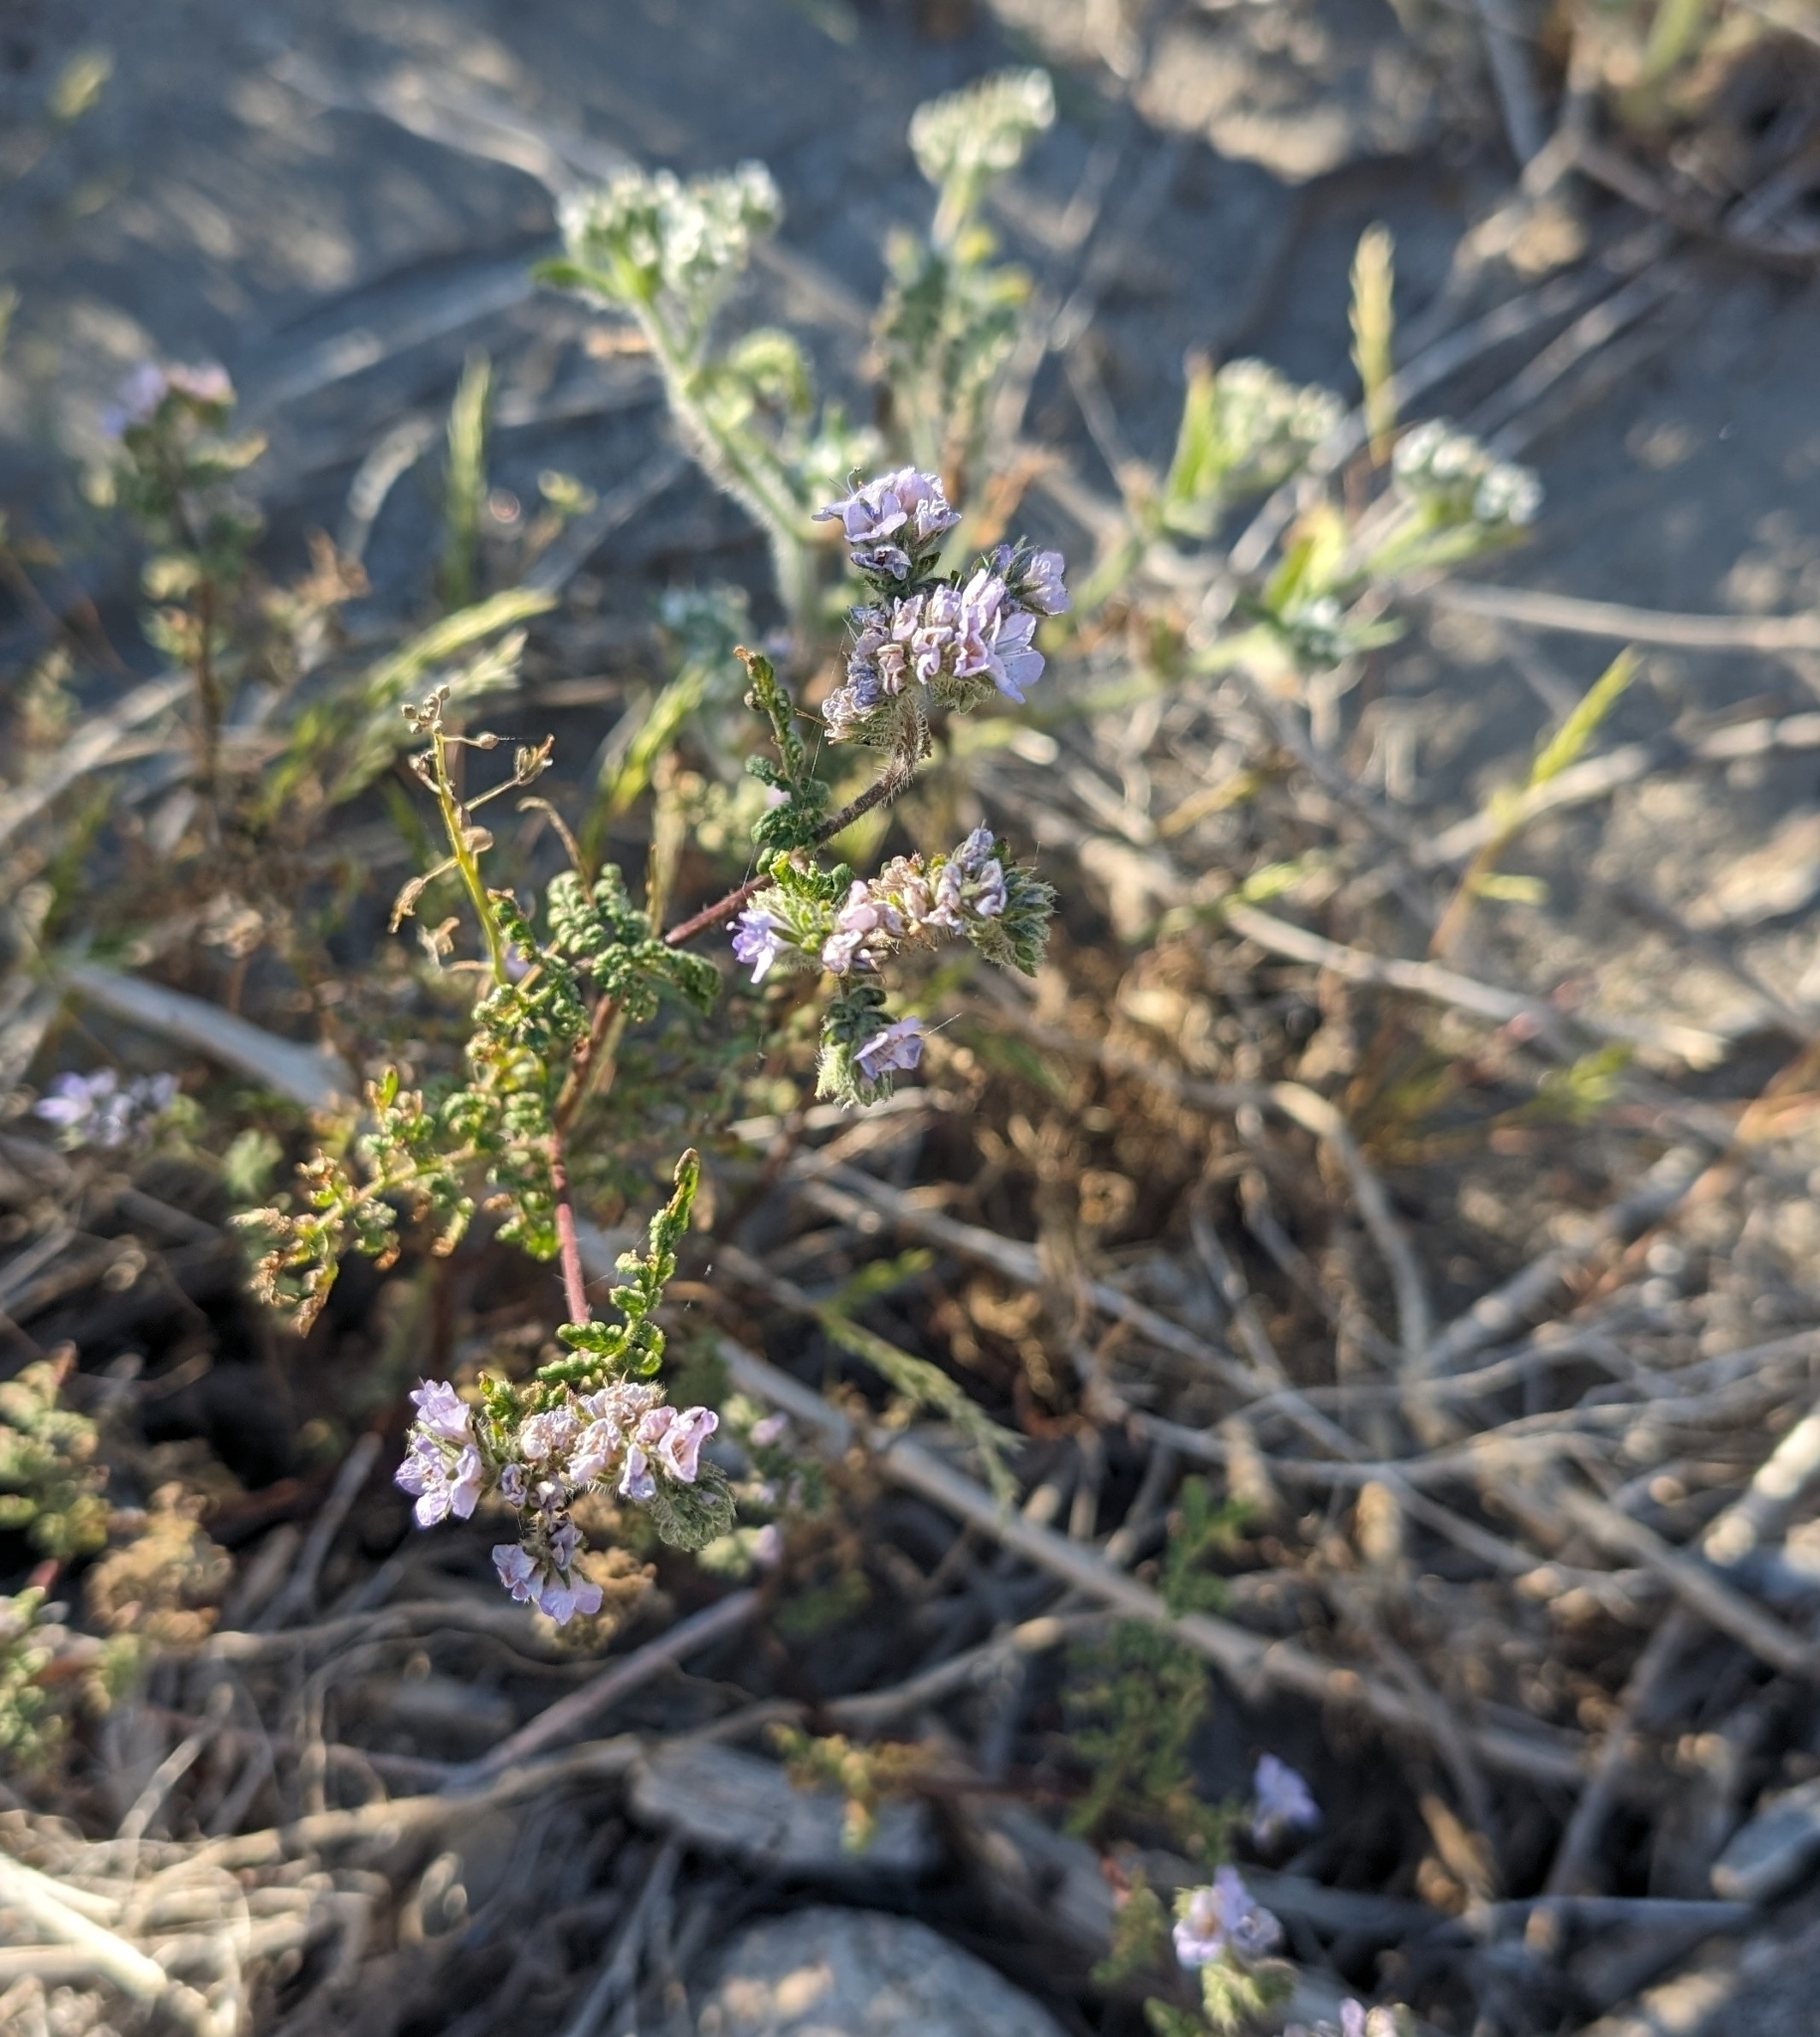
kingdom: Plantae
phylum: Tracheophyta
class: Magnoliopsida
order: Boraginales
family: Hydrophyllaceae
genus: Phacelia
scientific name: Phacelia distans
